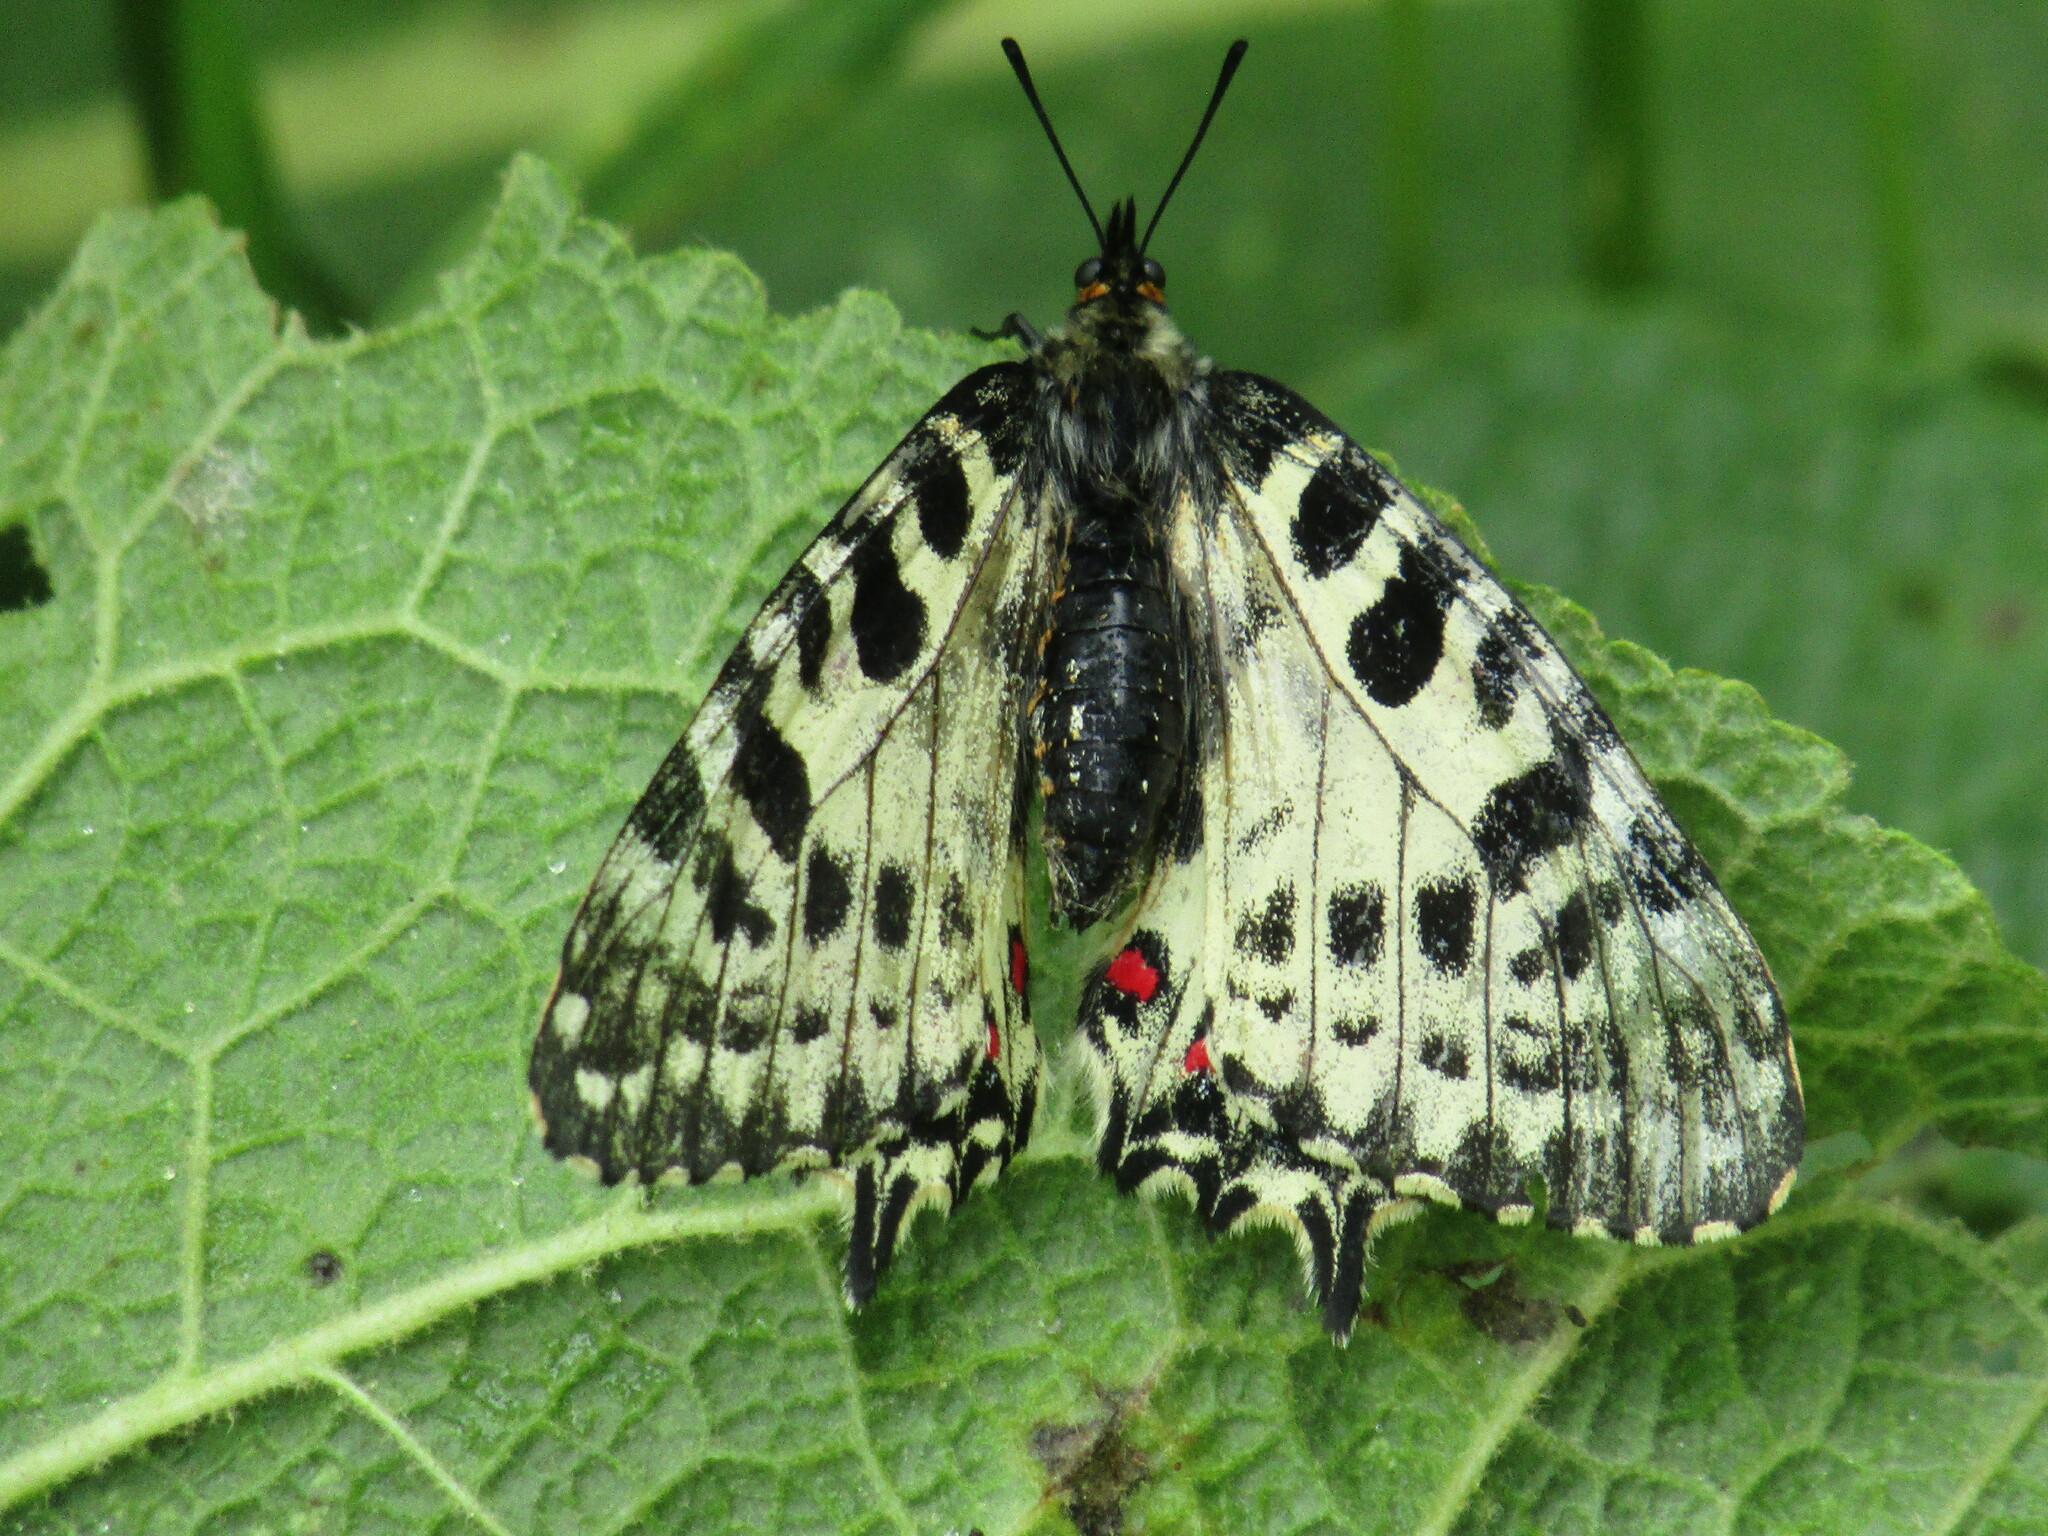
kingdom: Animalia
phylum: Arthropoda
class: Insecta
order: Lepidoptera
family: Papilionidae
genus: Zerynthia
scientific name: Zerynthia cerisy
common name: Eastern festoon
